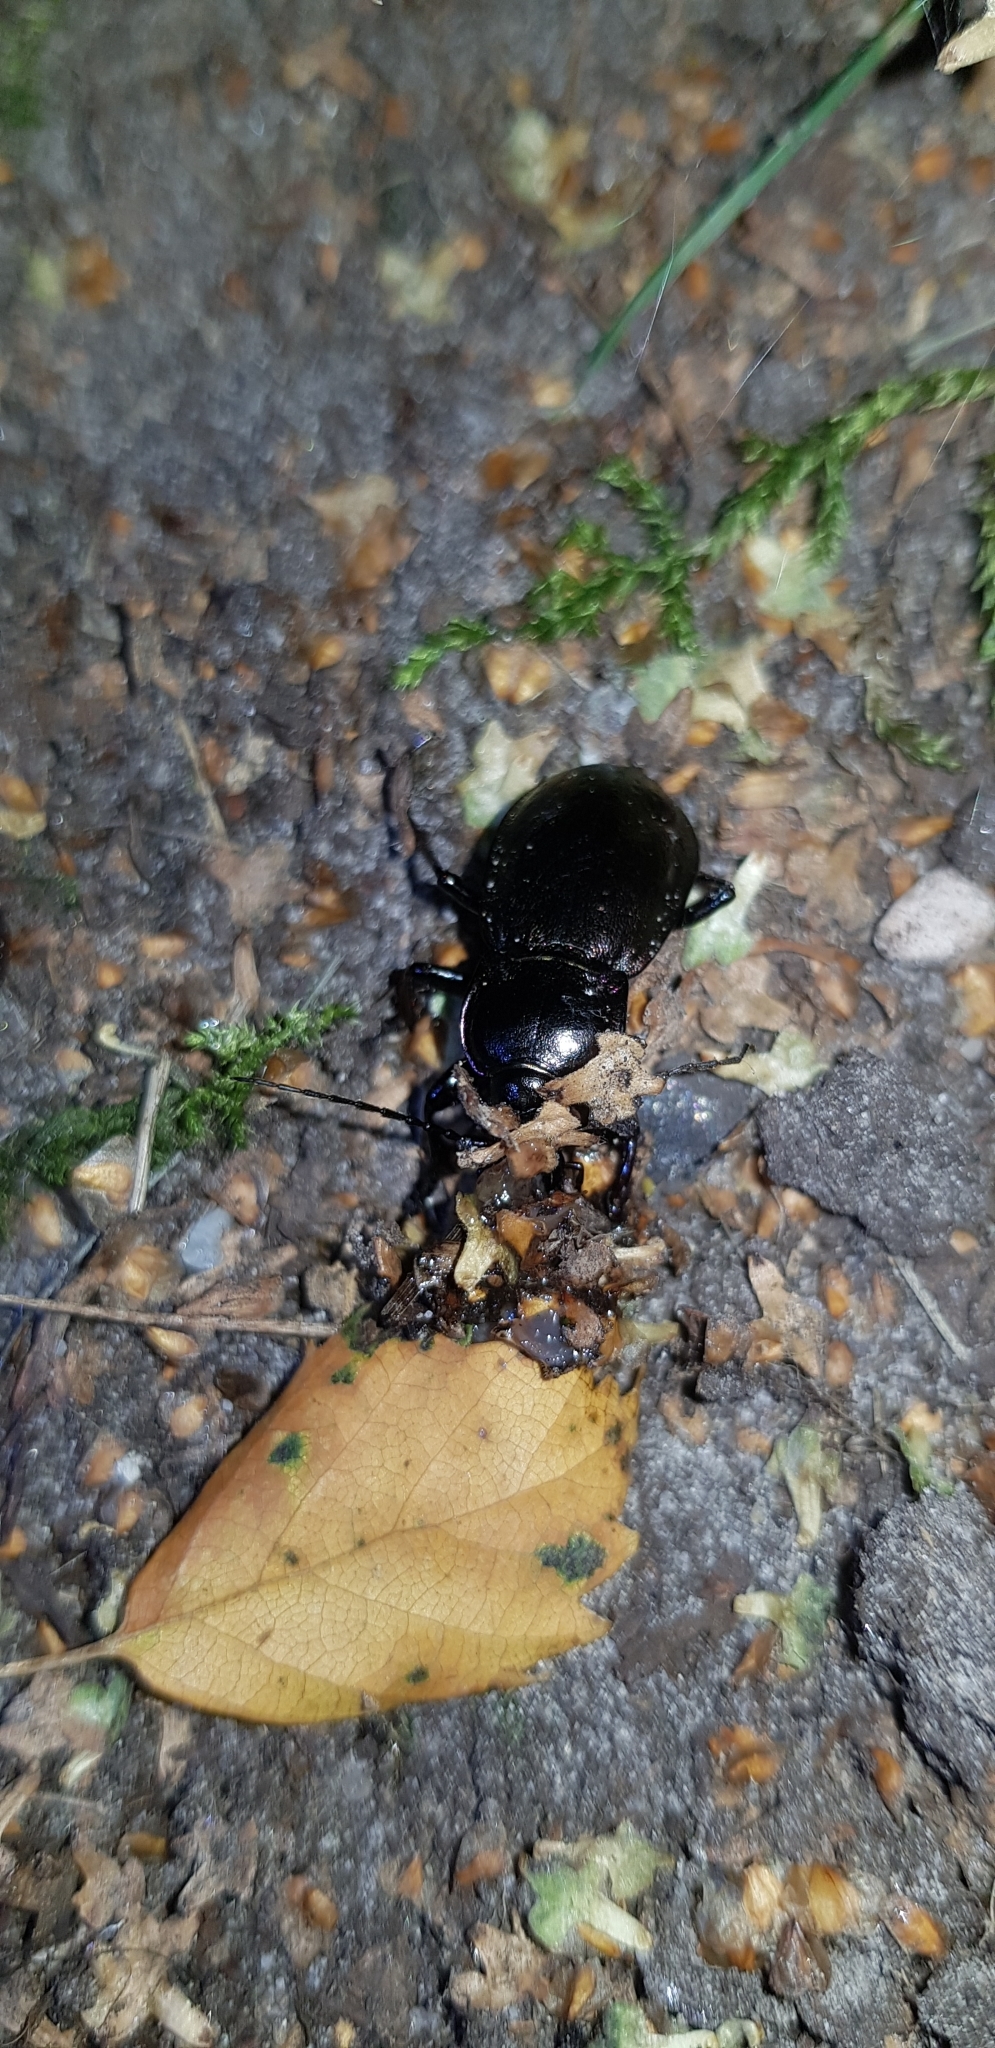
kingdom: Animalia
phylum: Arthropoda
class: Insecta
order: Coleoptera
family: Carabidae
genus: Carabus
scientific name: Carabus nemoralis
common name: European ground beetle
